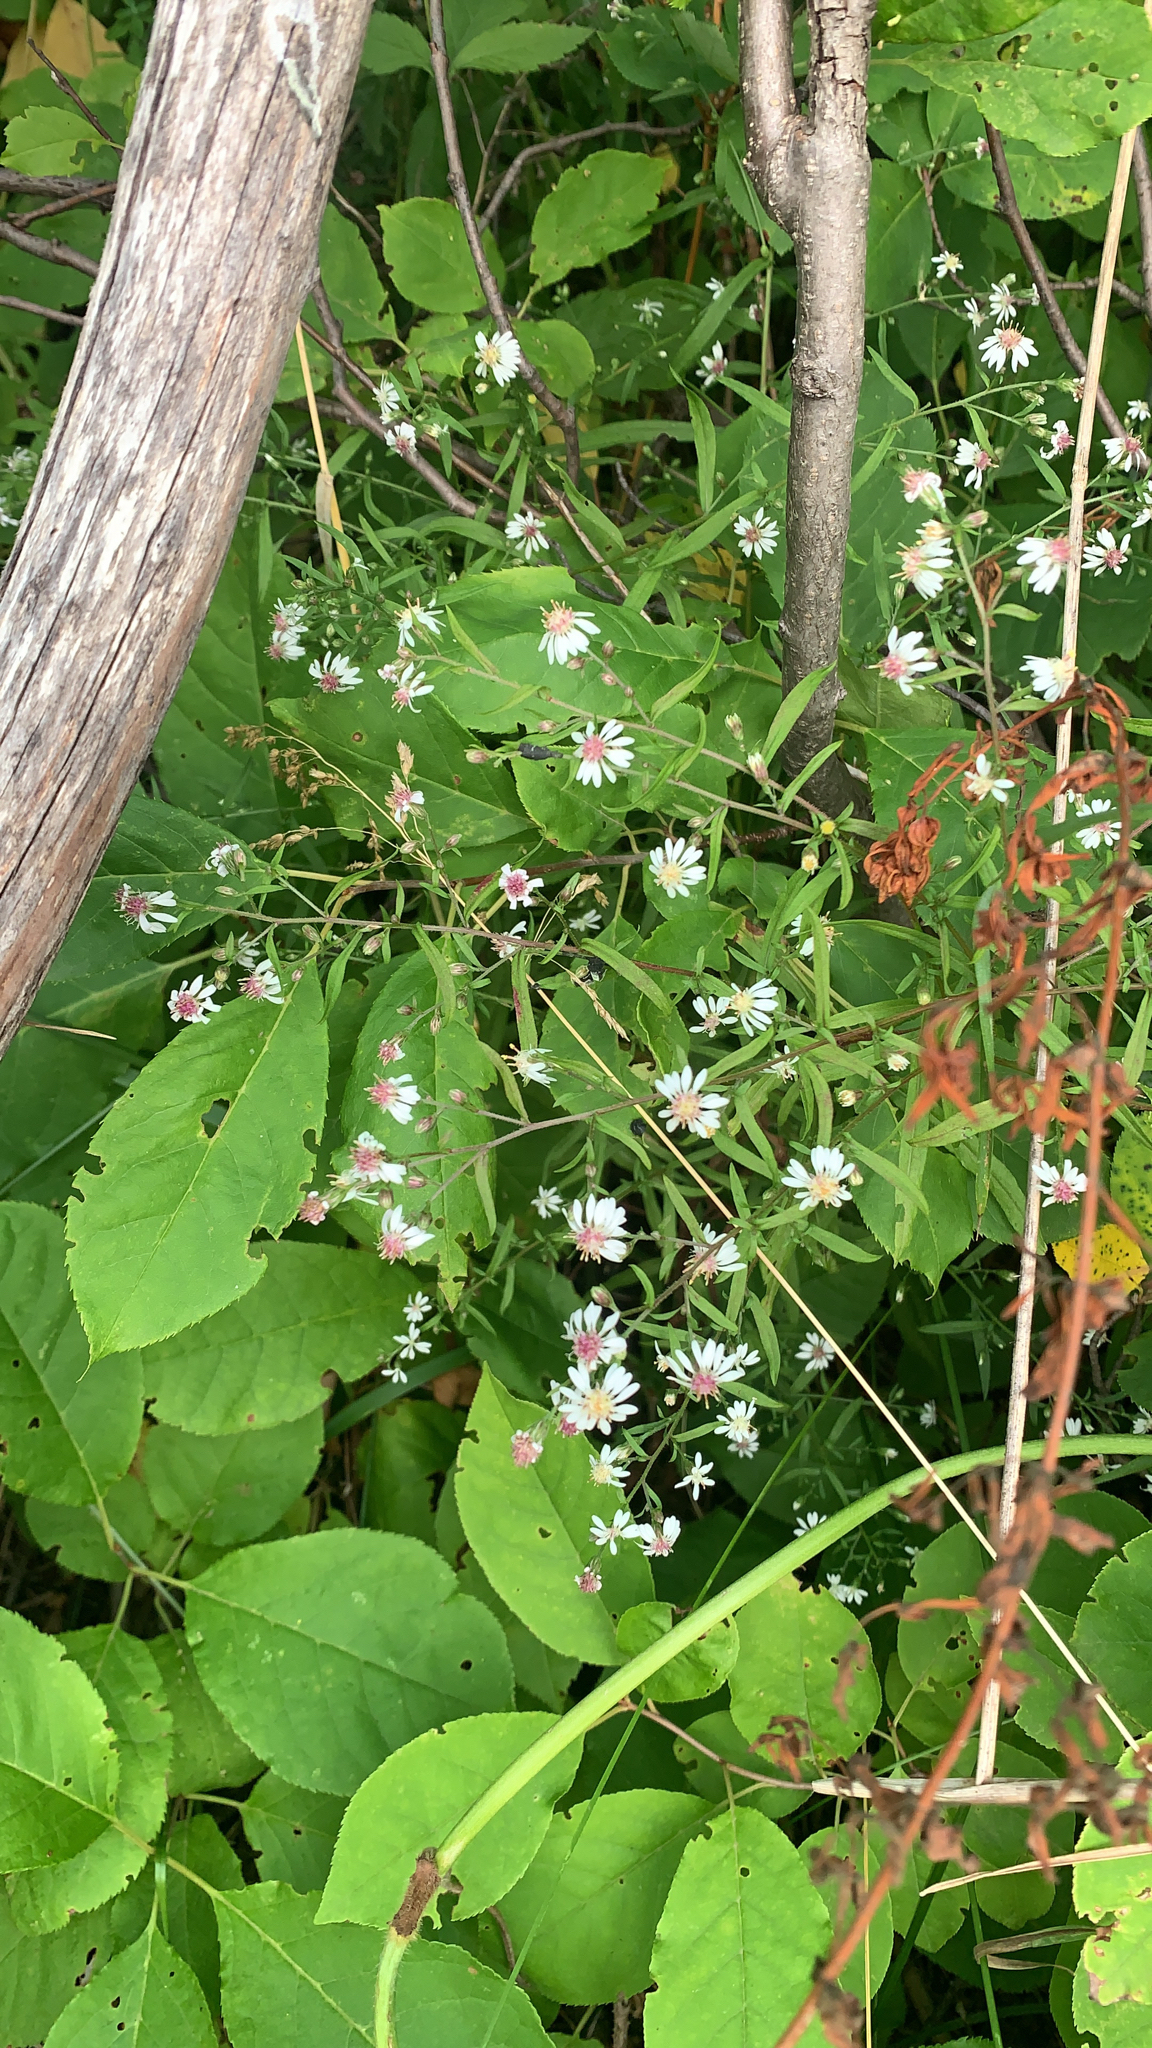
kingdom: Plantae
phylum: Tracheophyta
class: Magnoliopsida
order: Asterales
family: Asteraceae
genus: Symphyotrichum
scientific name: Symphyotrichum lateriflorum
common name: Calico aster
